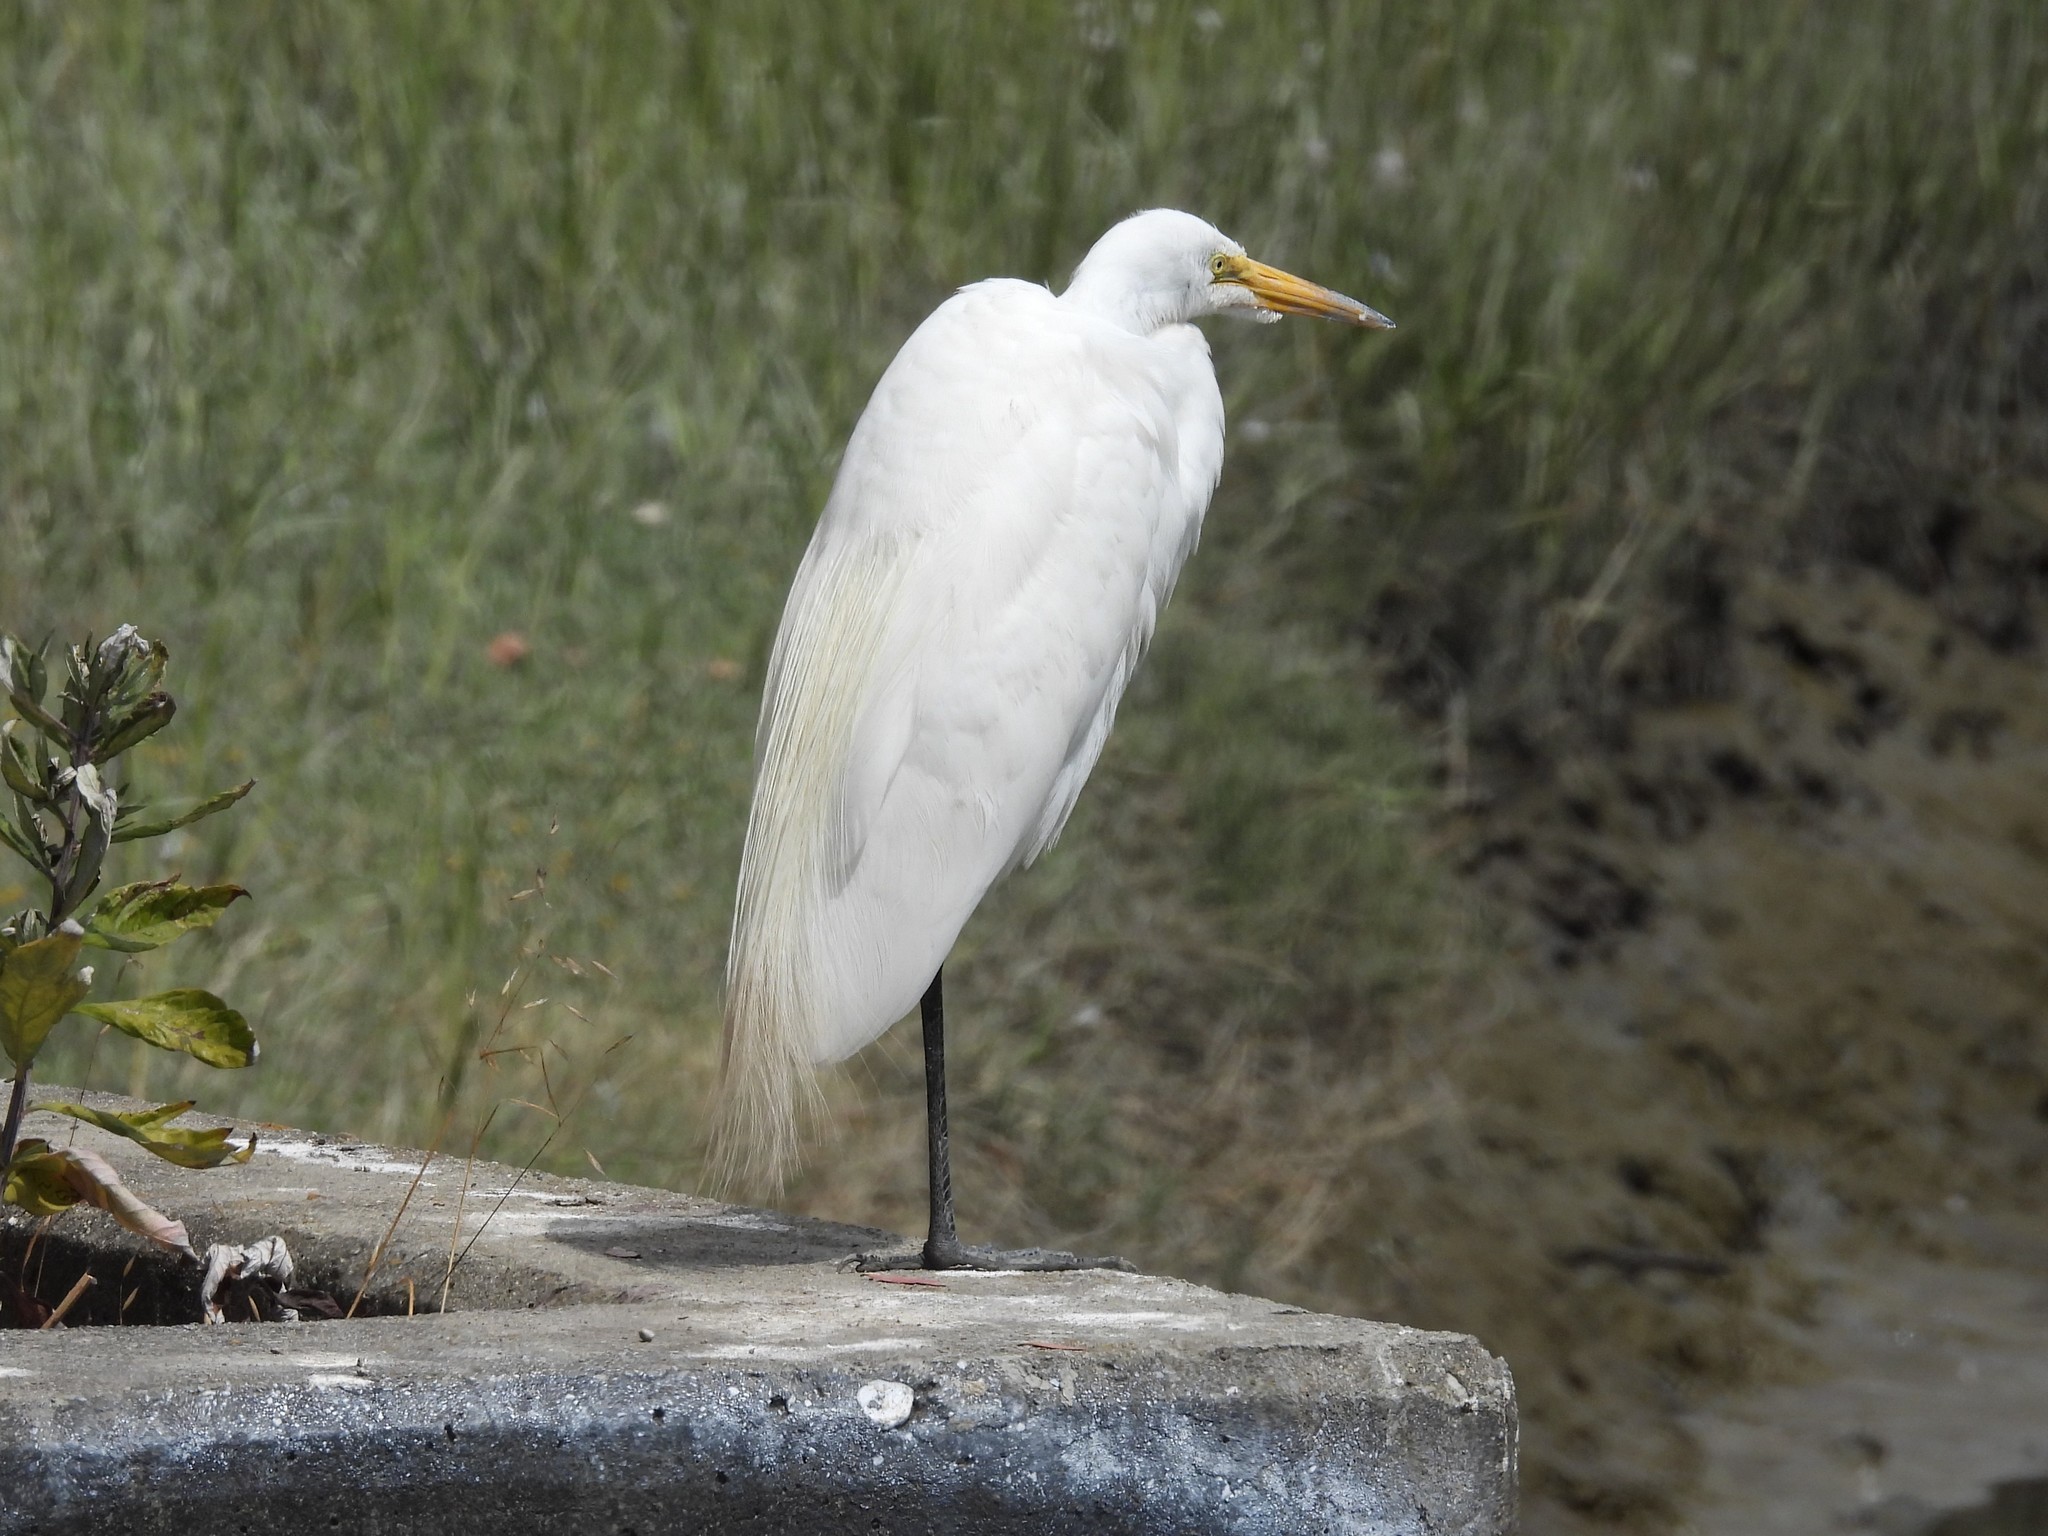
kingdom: Animalia
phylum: Chordata
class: Aves
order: Pelecaniformes
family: Ardeidae
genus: Ardea
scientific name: Ardea alba
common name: Great egret
